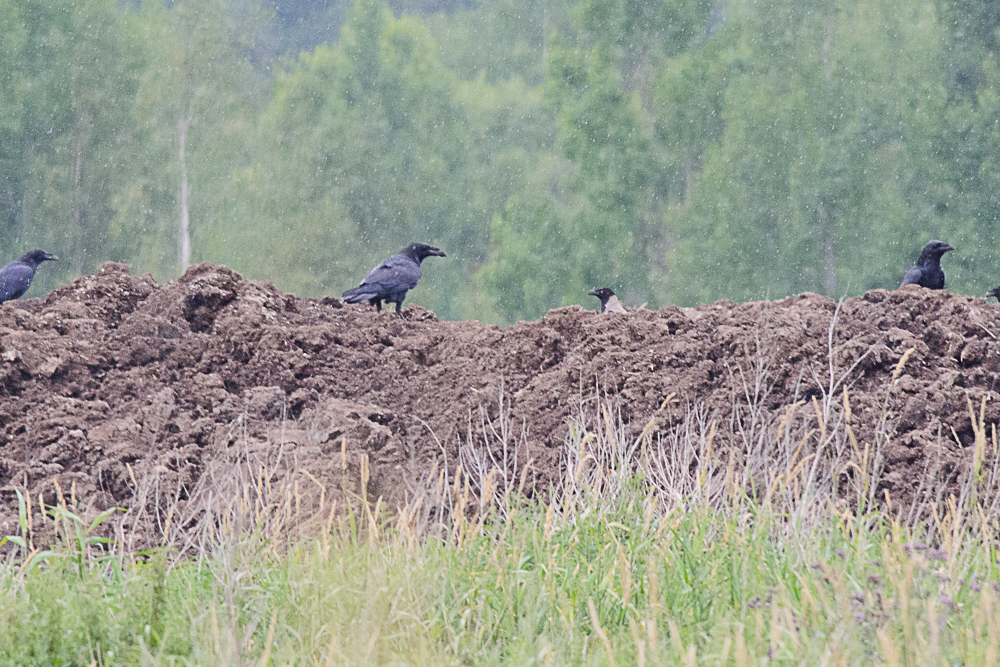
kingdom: Animalia
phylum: Chordata
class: Aves
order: Passeriformes
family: Corvidae
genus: Corvus
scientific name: Corvus corax
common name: Common raven
